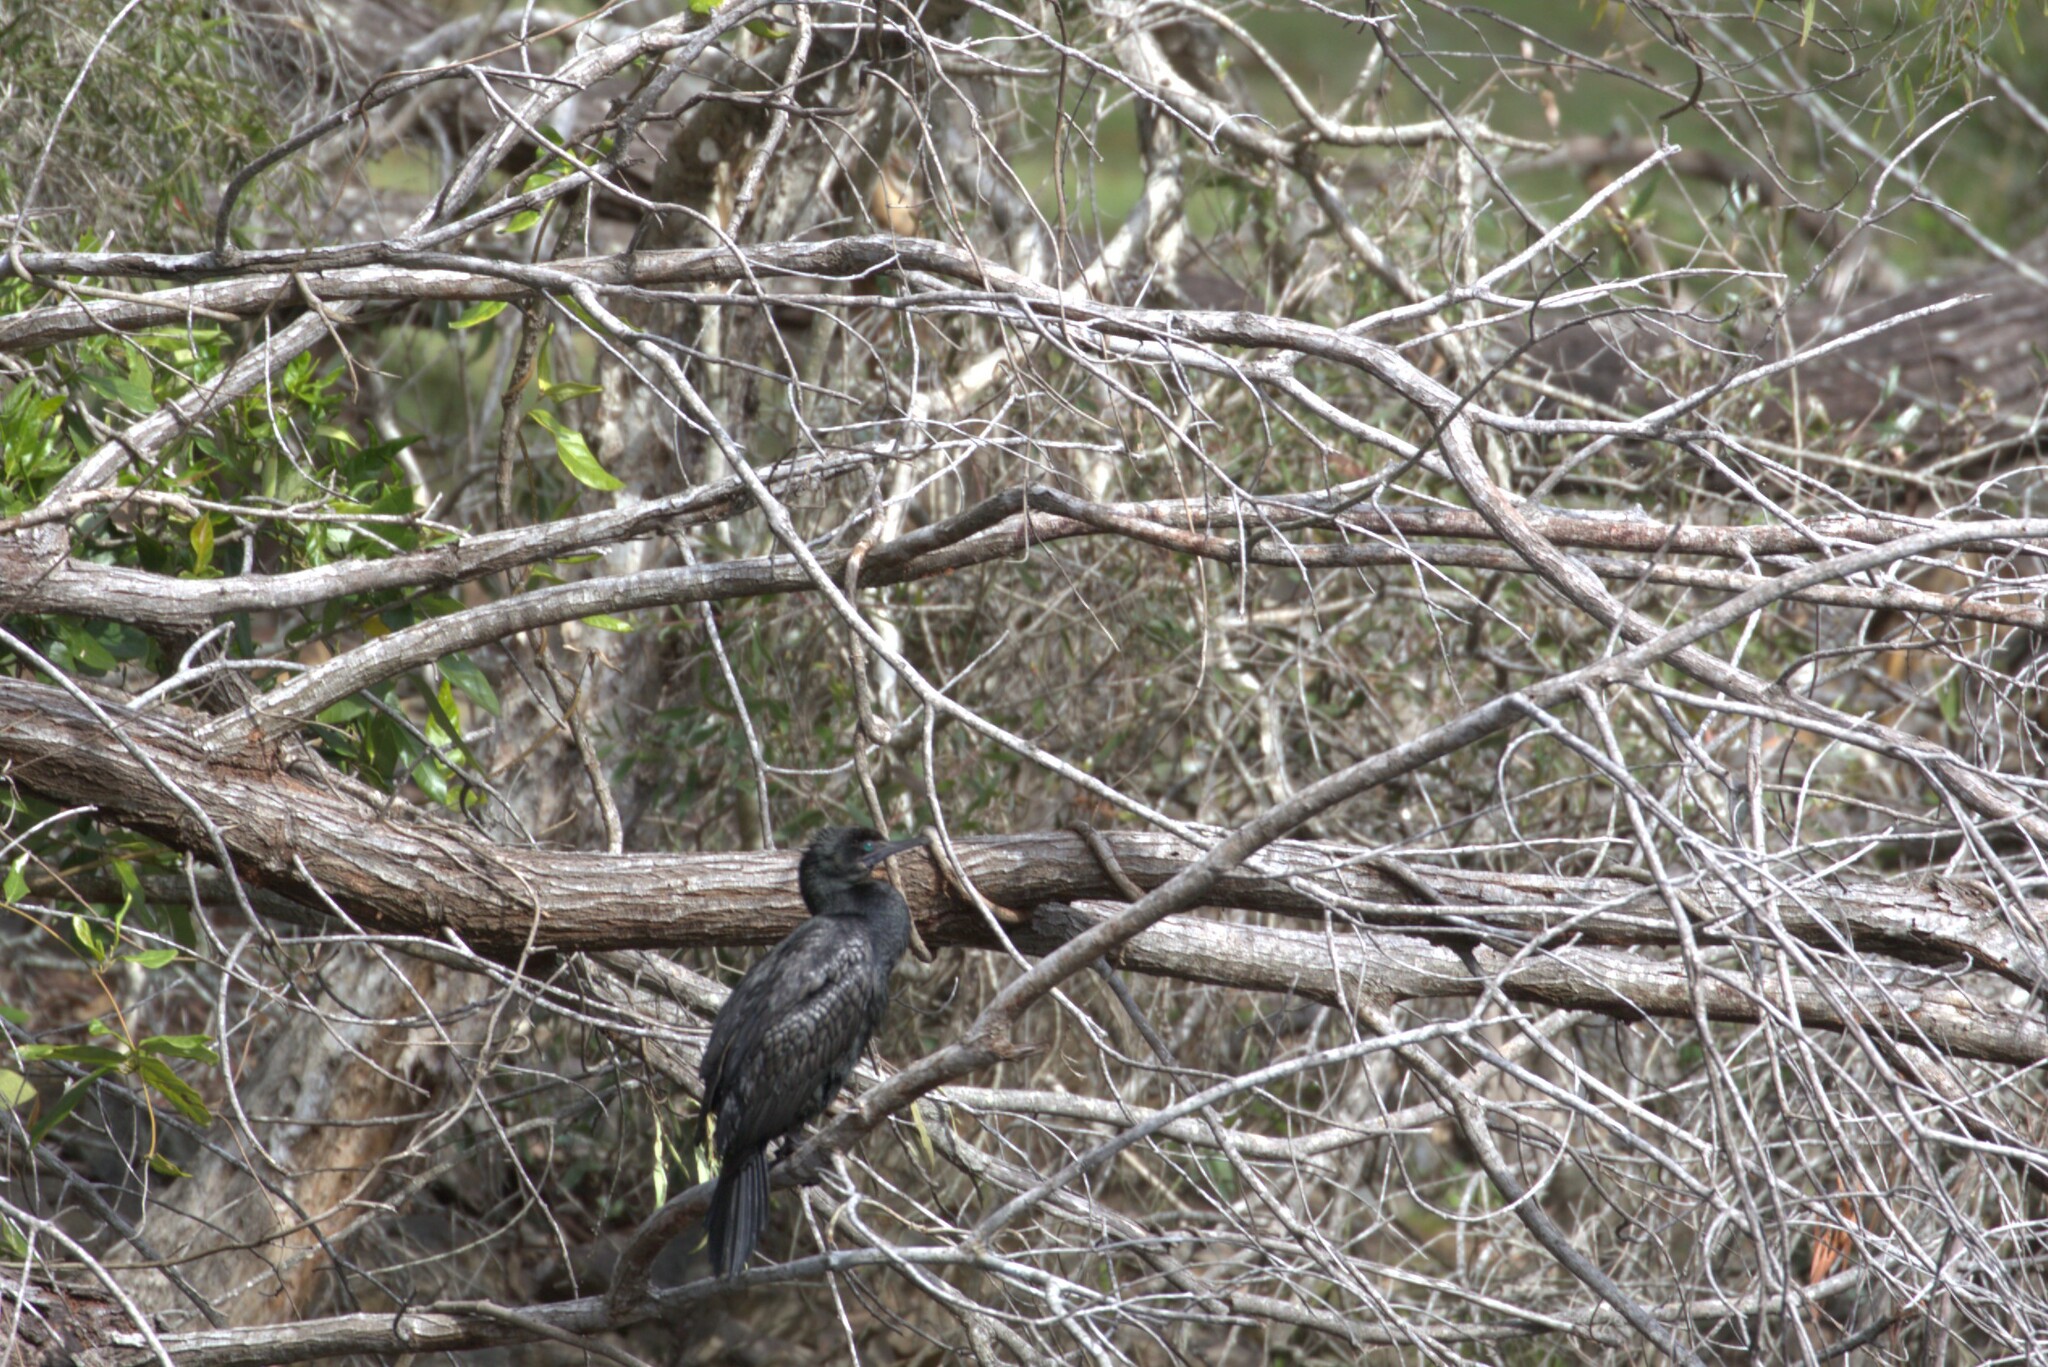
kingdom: Animalia
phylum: Chordata
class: Aves
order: Suliformes
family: Phalacrocoracidae
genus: Phalacrocorax
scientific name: Phalacrocorax sulcirostris
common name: Little black cormorant
